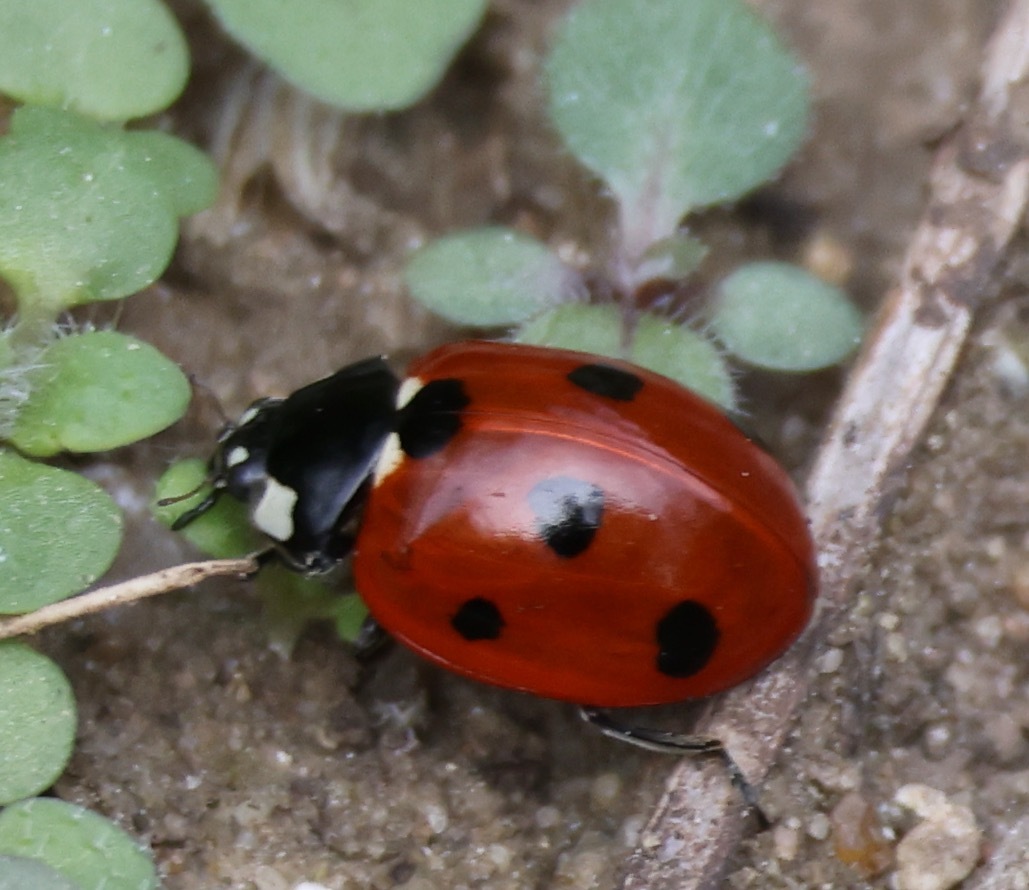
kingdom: Animalia
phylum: Arthropoda
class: Insecta
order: Coleoptera
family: Coccinellidae
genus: Coccinella
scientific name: Coccinella septempunctata
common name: Sevenspotted lady beetle
